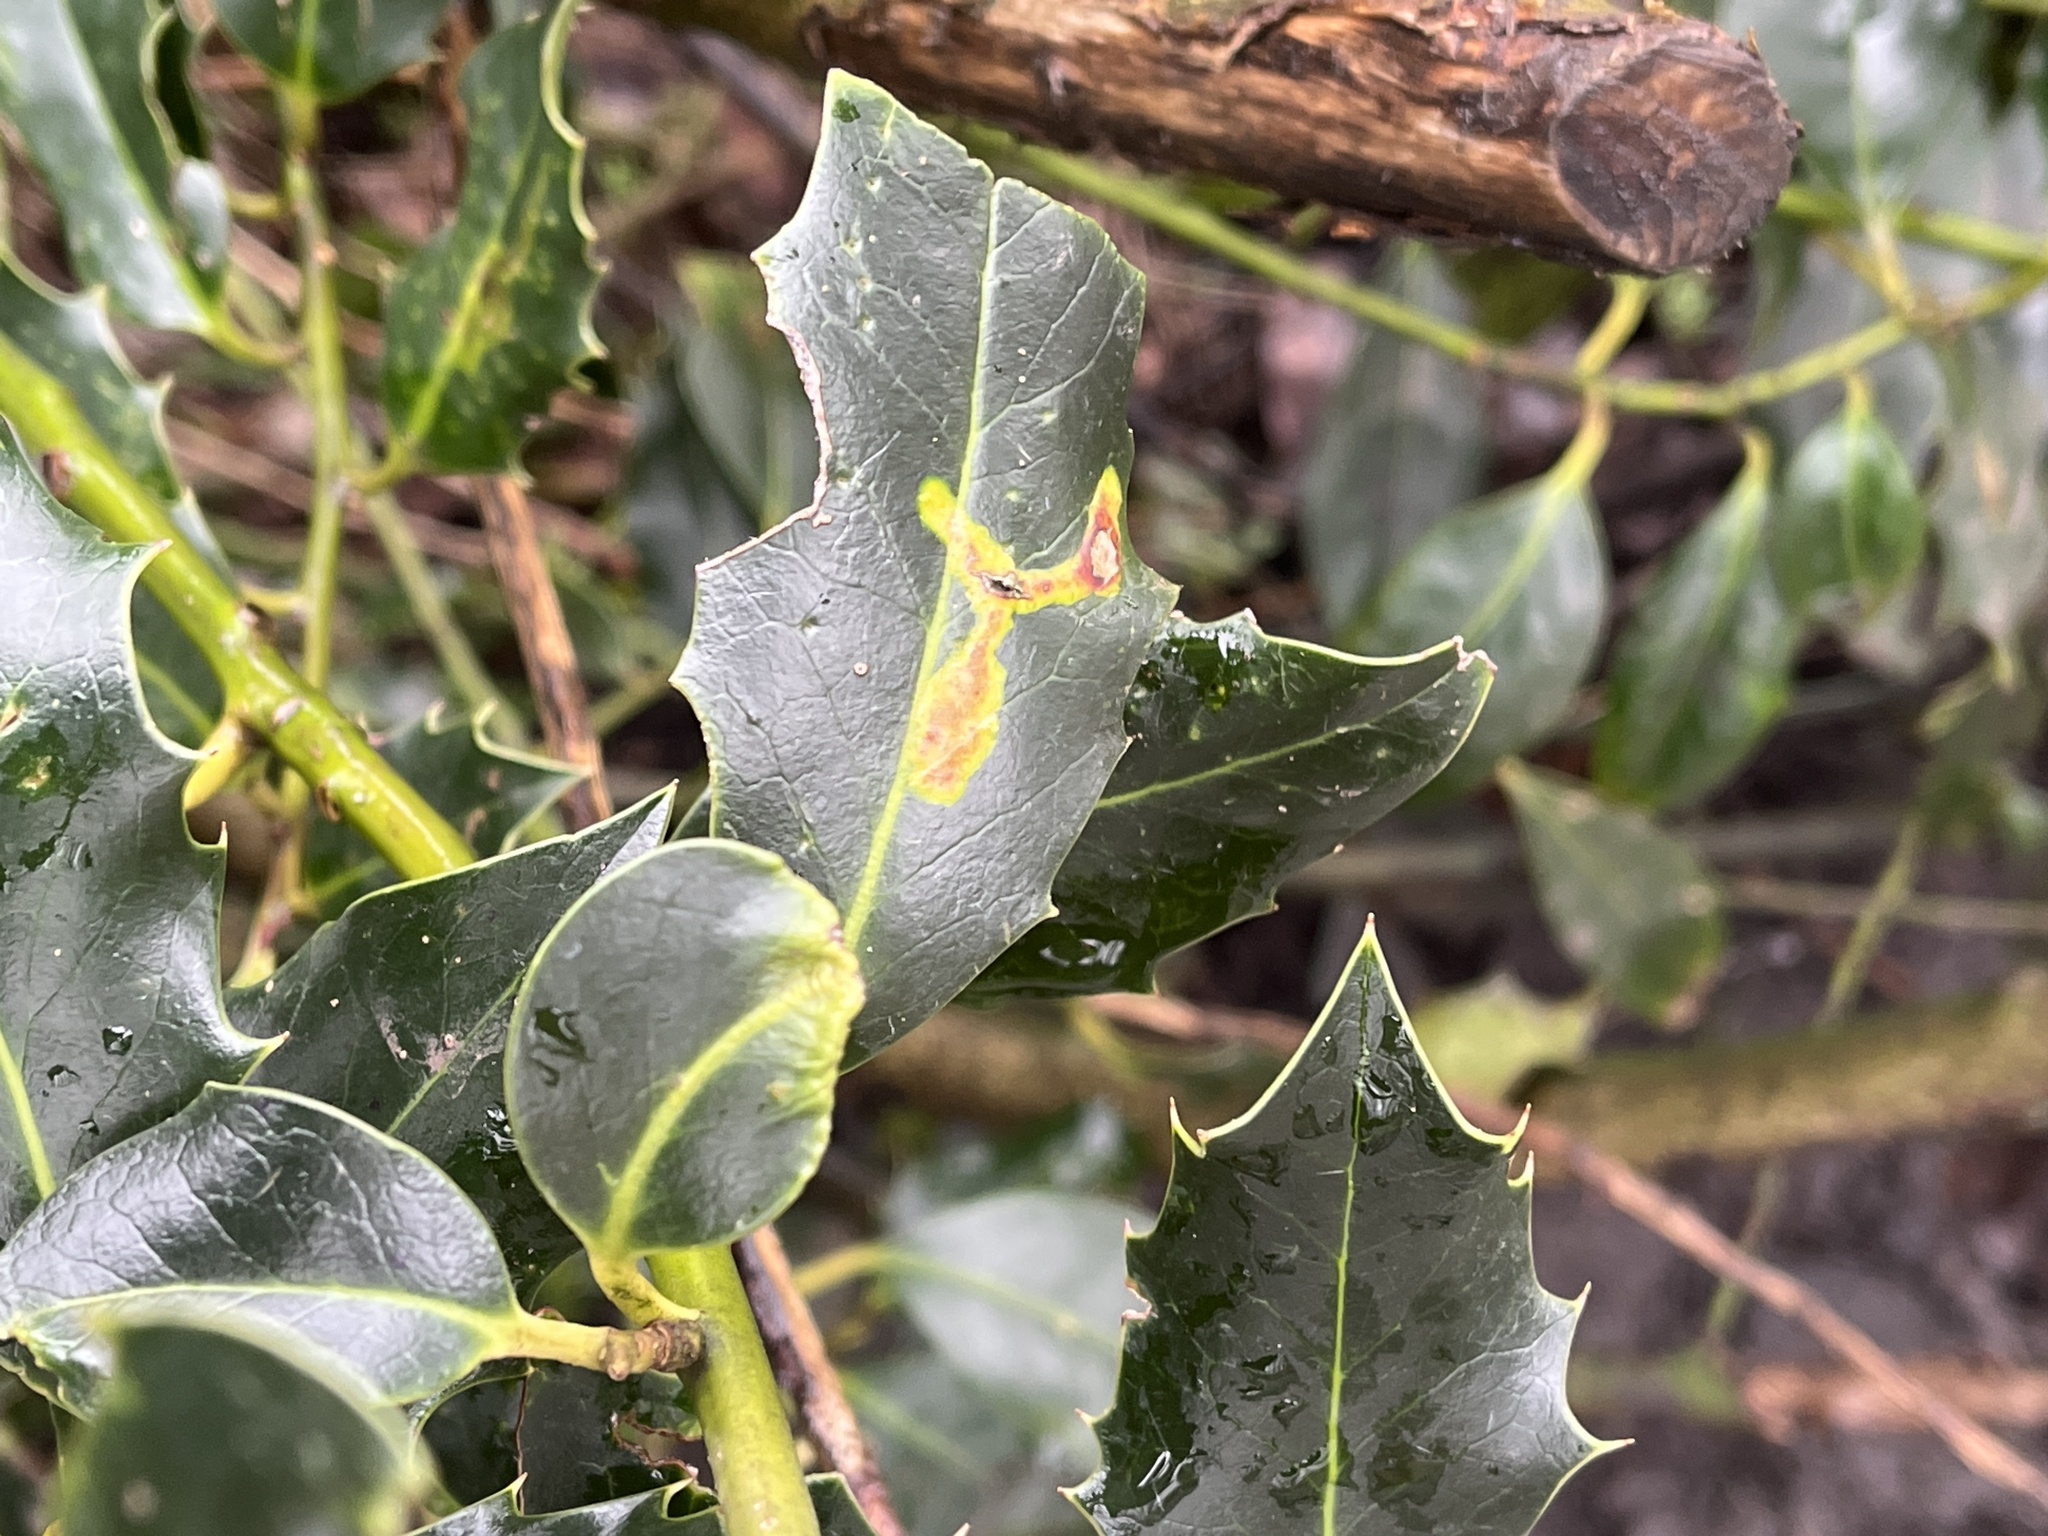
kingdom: Animalia
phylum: Arthropoda
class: Insecta
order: Diptera
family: Agromyzidae
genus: Phytomyza
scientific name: Phytomyza ilicis
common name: Holly leafminer
